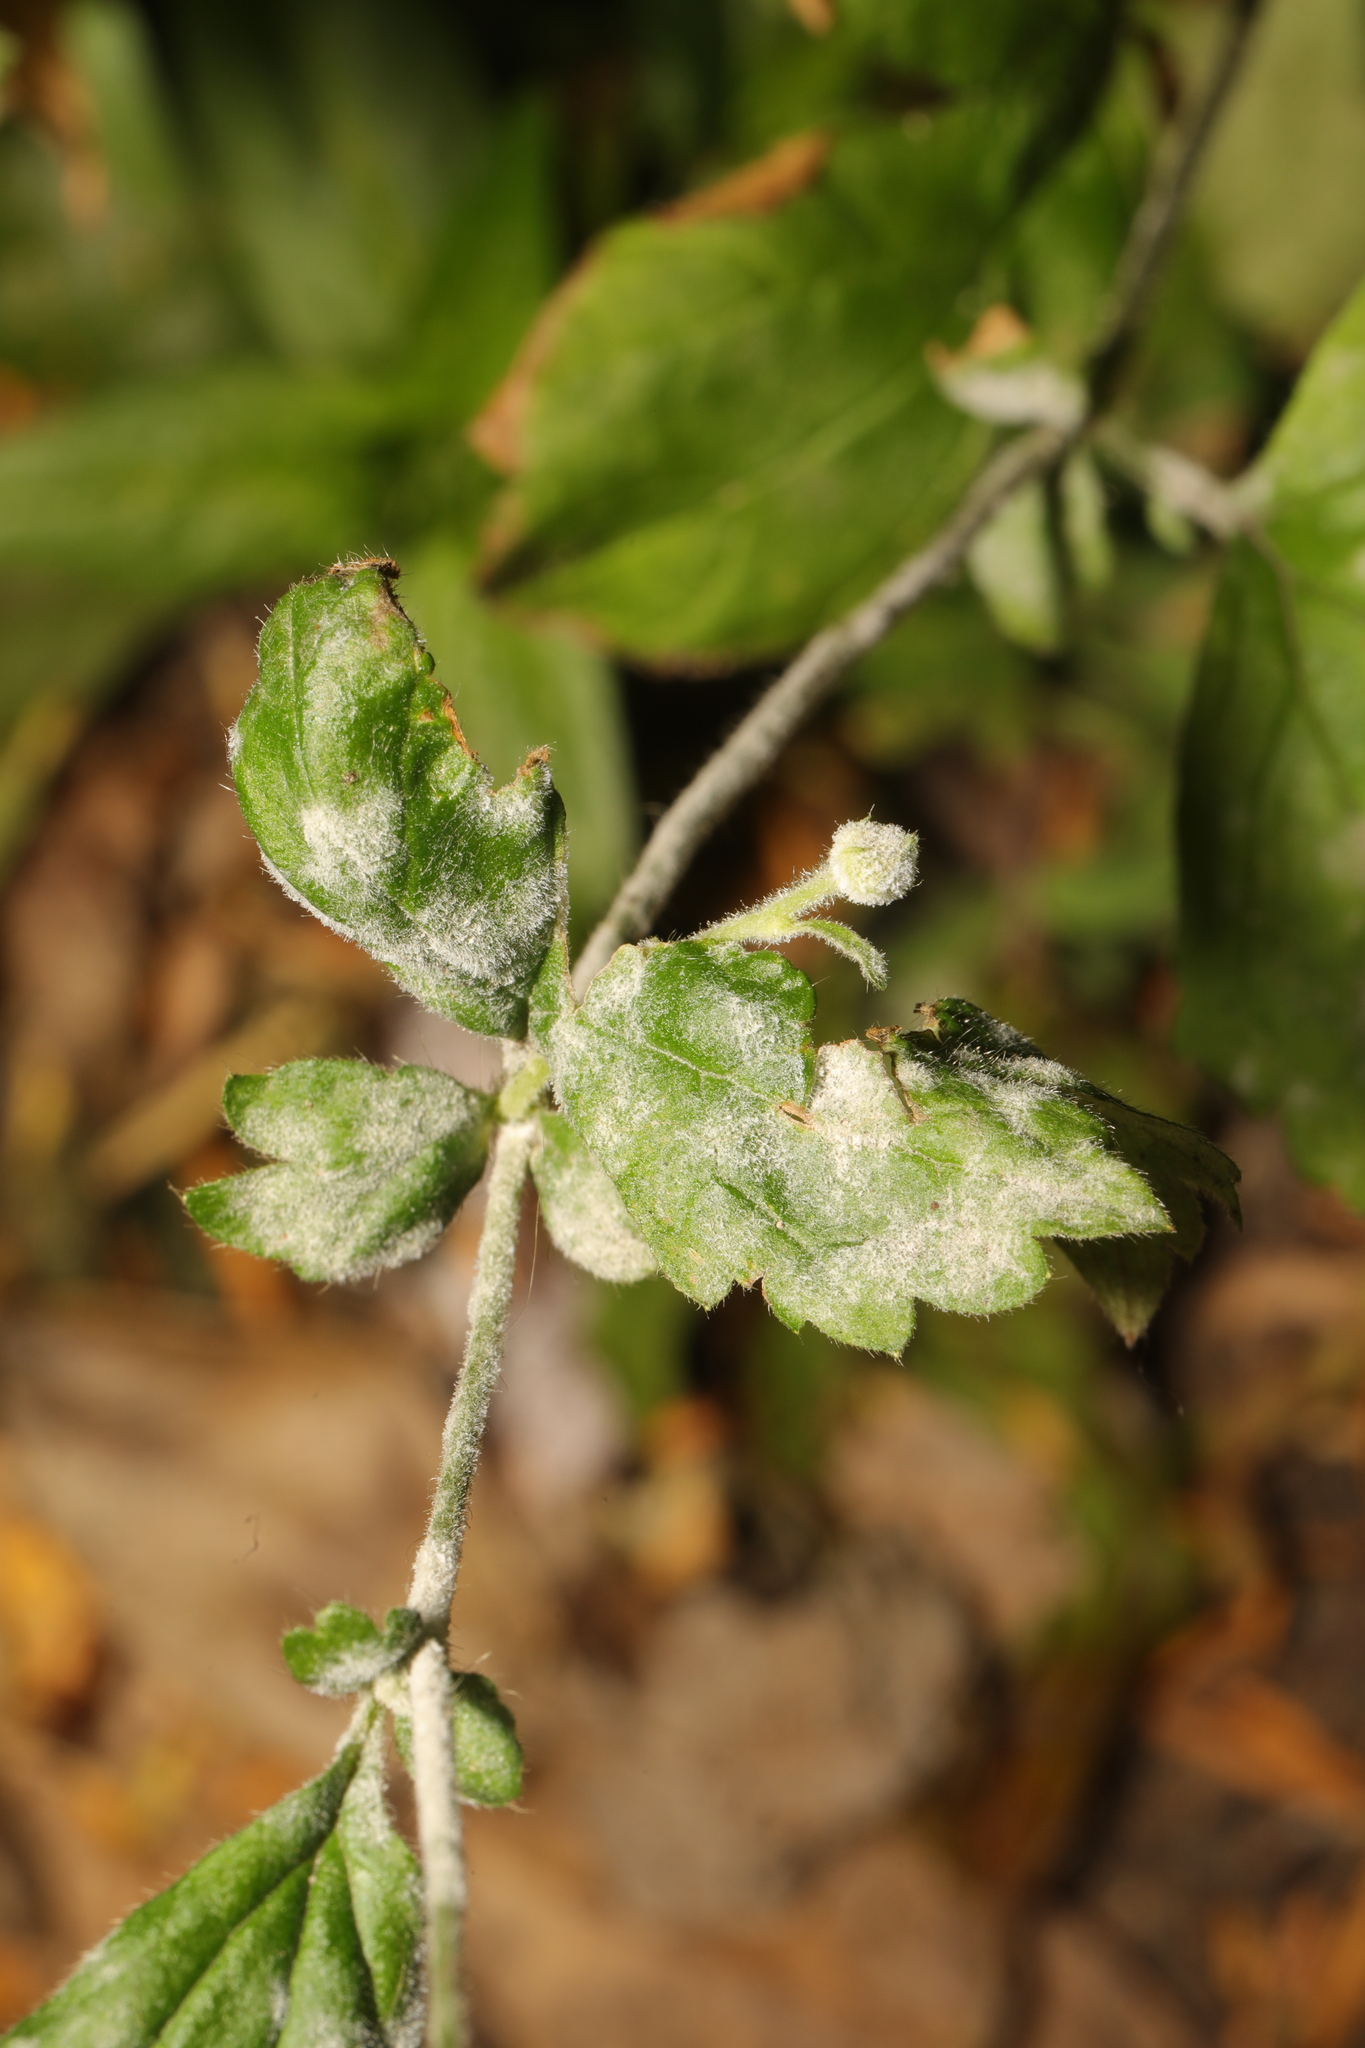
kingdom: Fungi
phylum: Ascomycota
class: Leotiomycetes
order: Helotiales
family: Erysiphaceae
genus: Podosphaera
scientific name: Podosphaera aphanis
